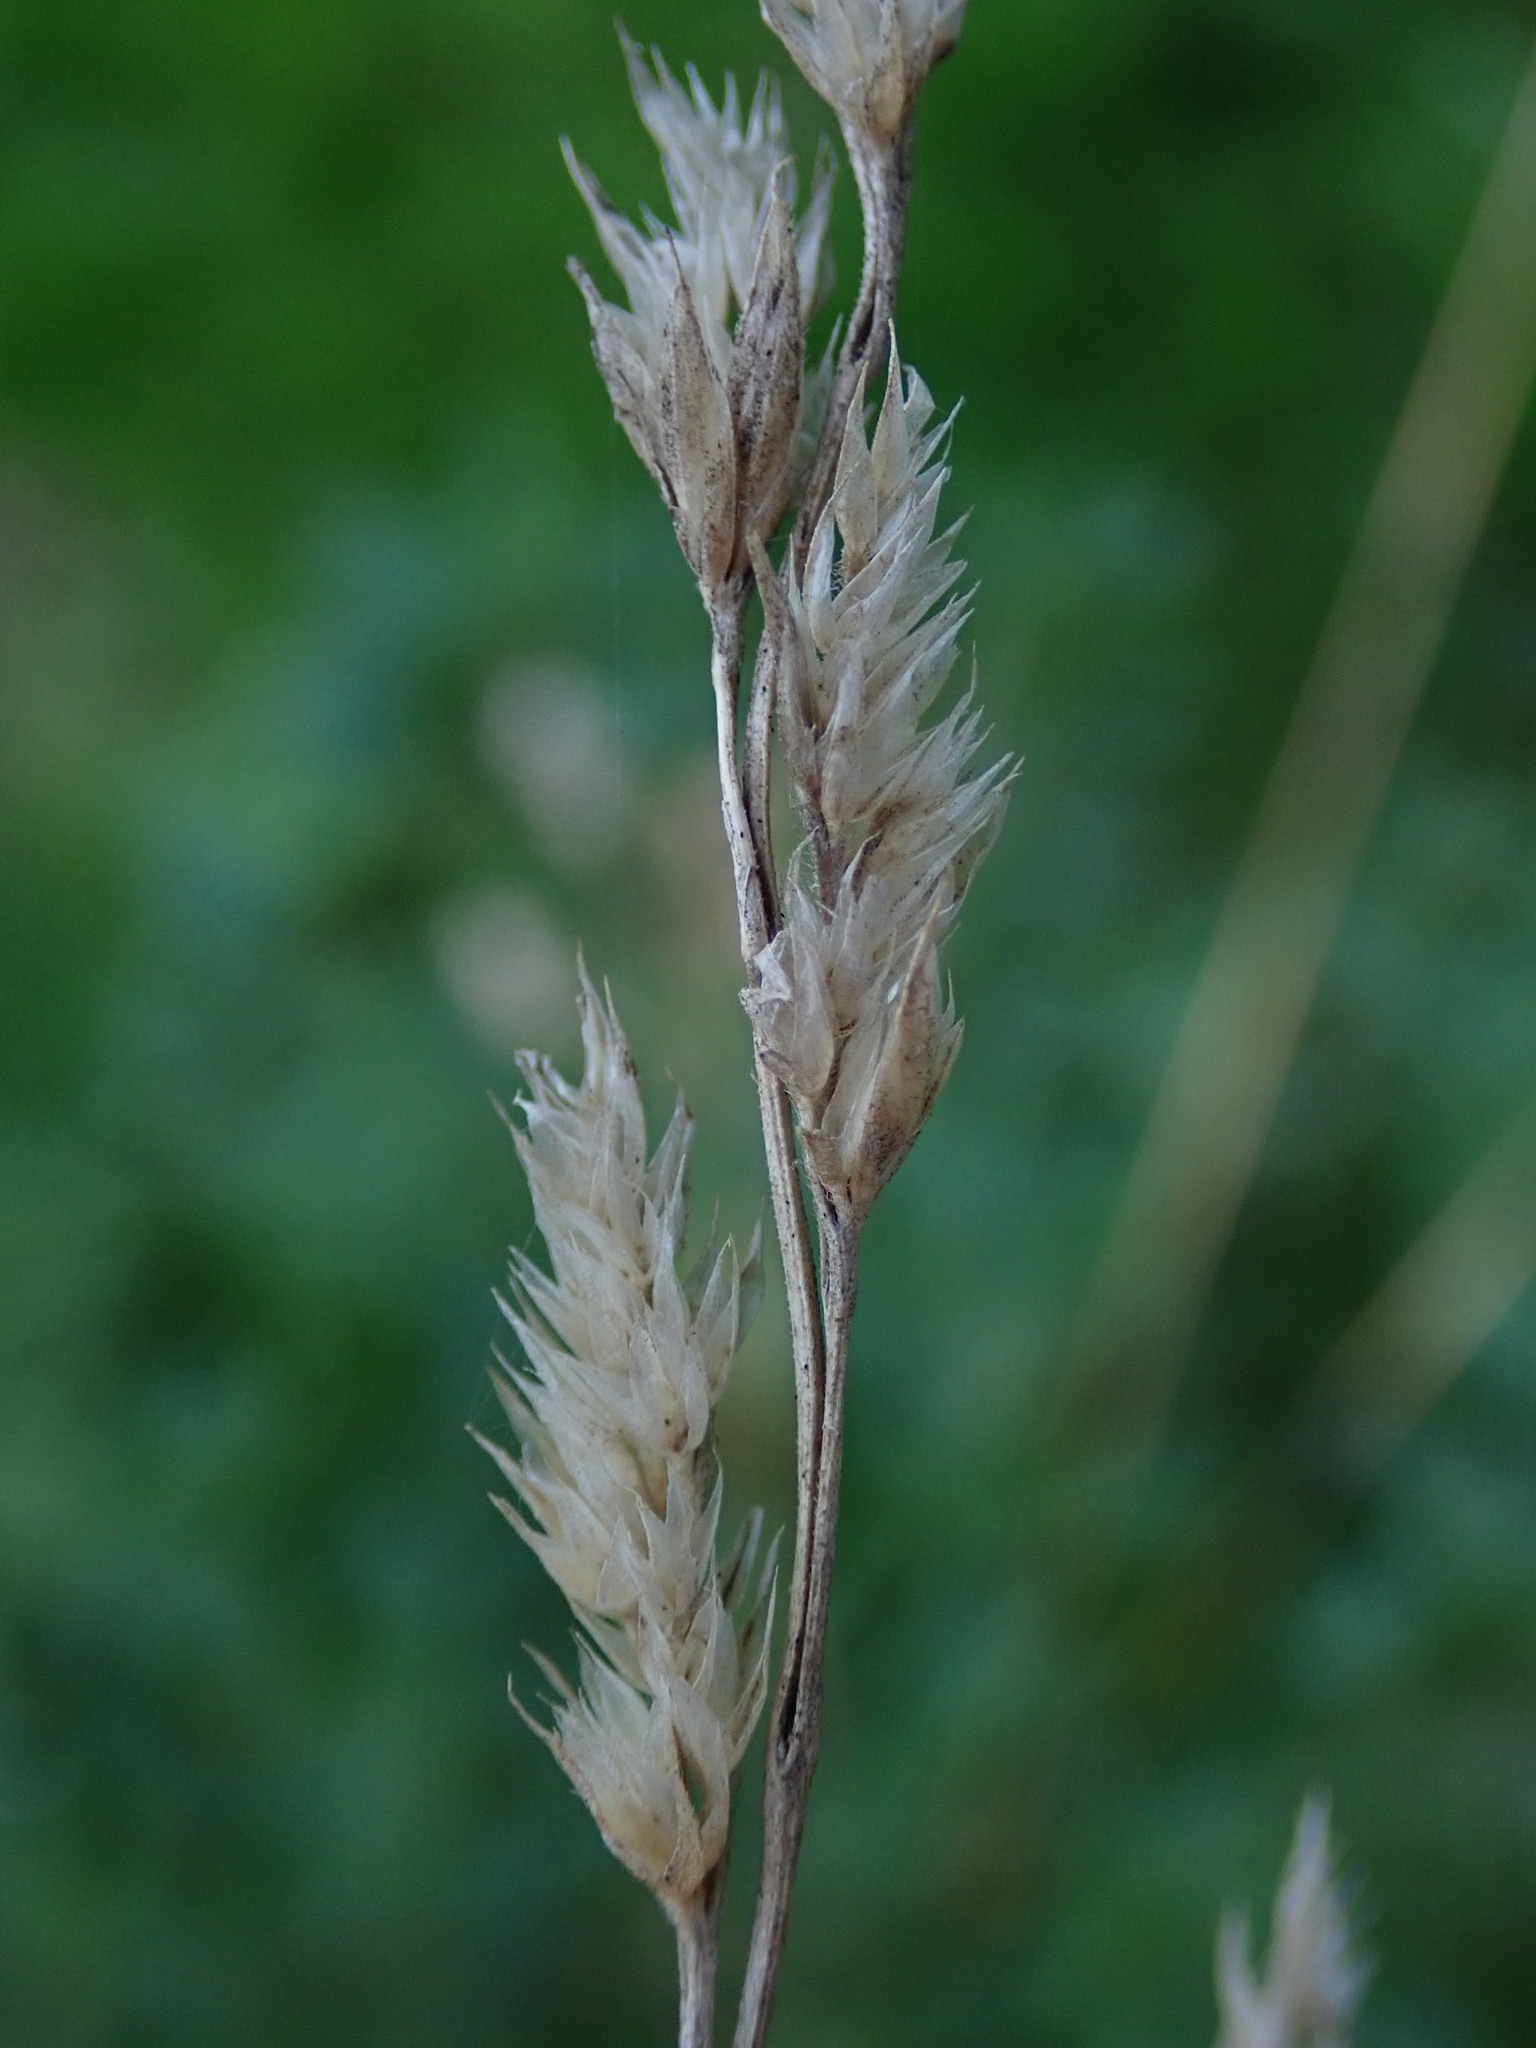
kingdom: Plantae
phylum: Tracheophyta
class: Liliopsida
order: Poales
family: Poaceae
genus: Dactylis
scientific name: Dactylis glomerata
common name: Orchardgrass
